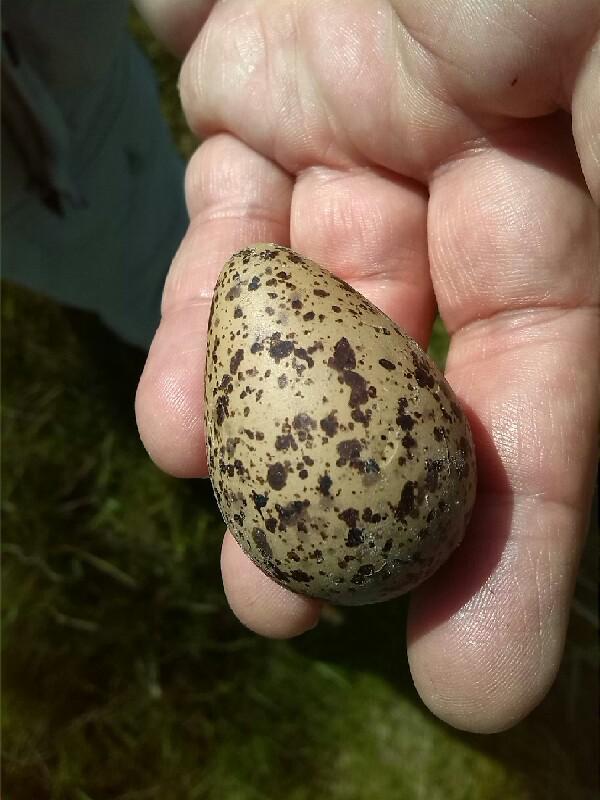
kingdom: Animalia
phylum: Chordata
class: Aves
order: Charadriiformes
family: Charadriidae
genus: Vanellus
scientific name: Vanellus vanellus
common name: Northern lapwing
